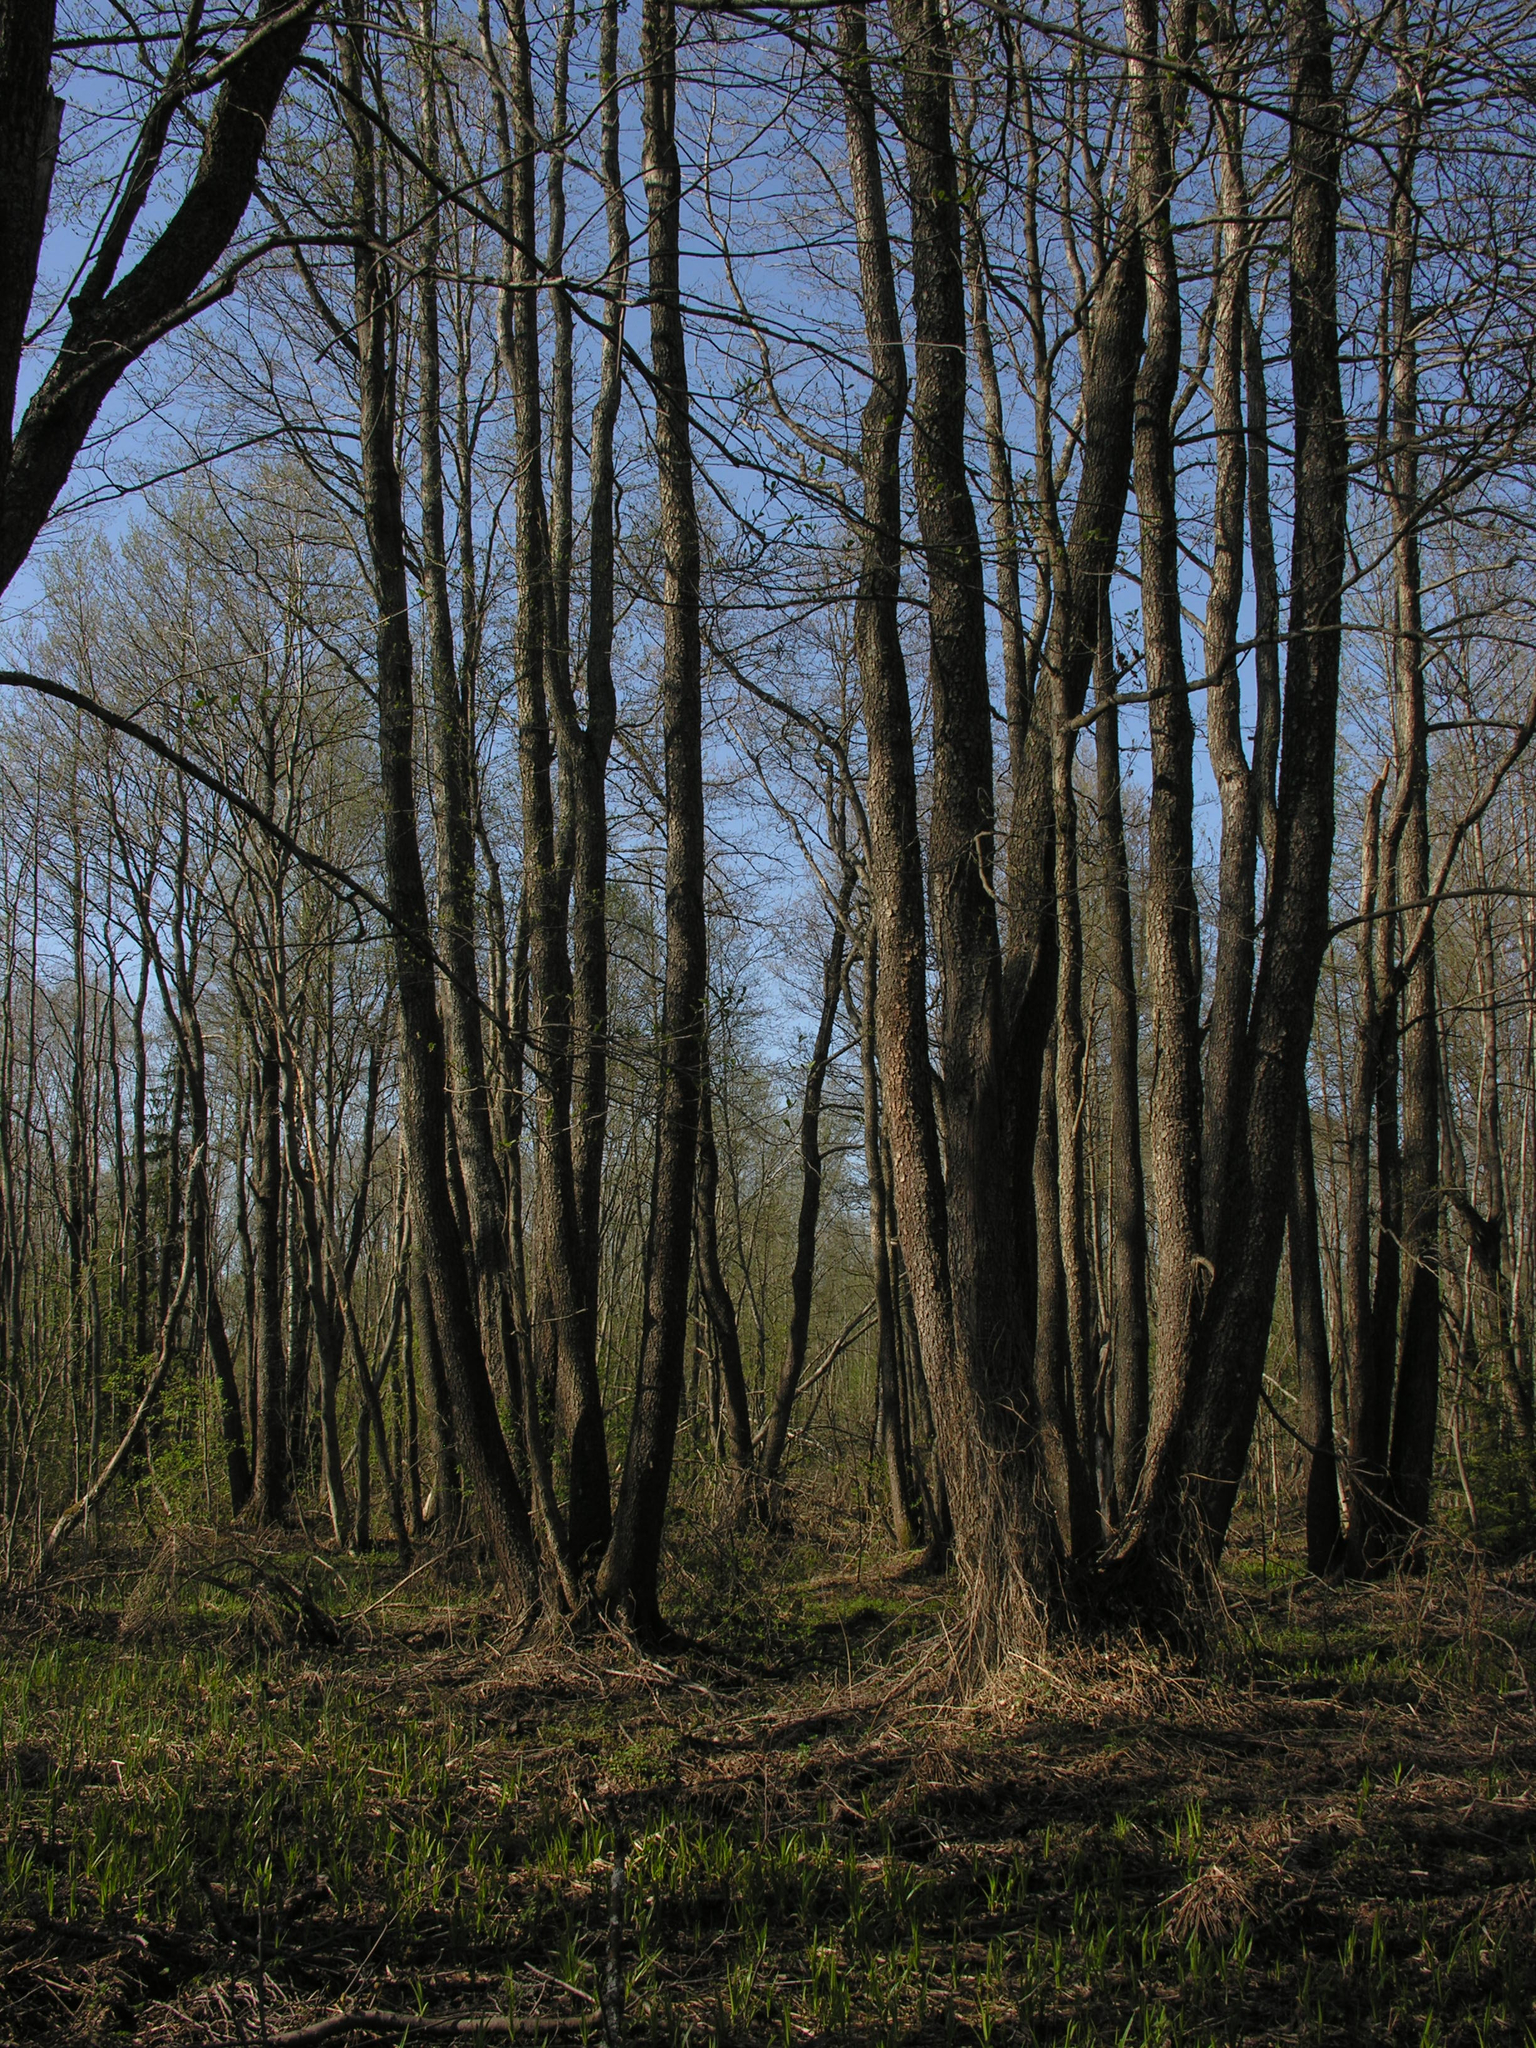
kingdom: Plantae
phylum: Tracheophyta
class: Magnoliopsida
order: Fagales
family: Betulaceae
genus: Alnus
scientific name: Alnus glutinosa
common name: Black alder
